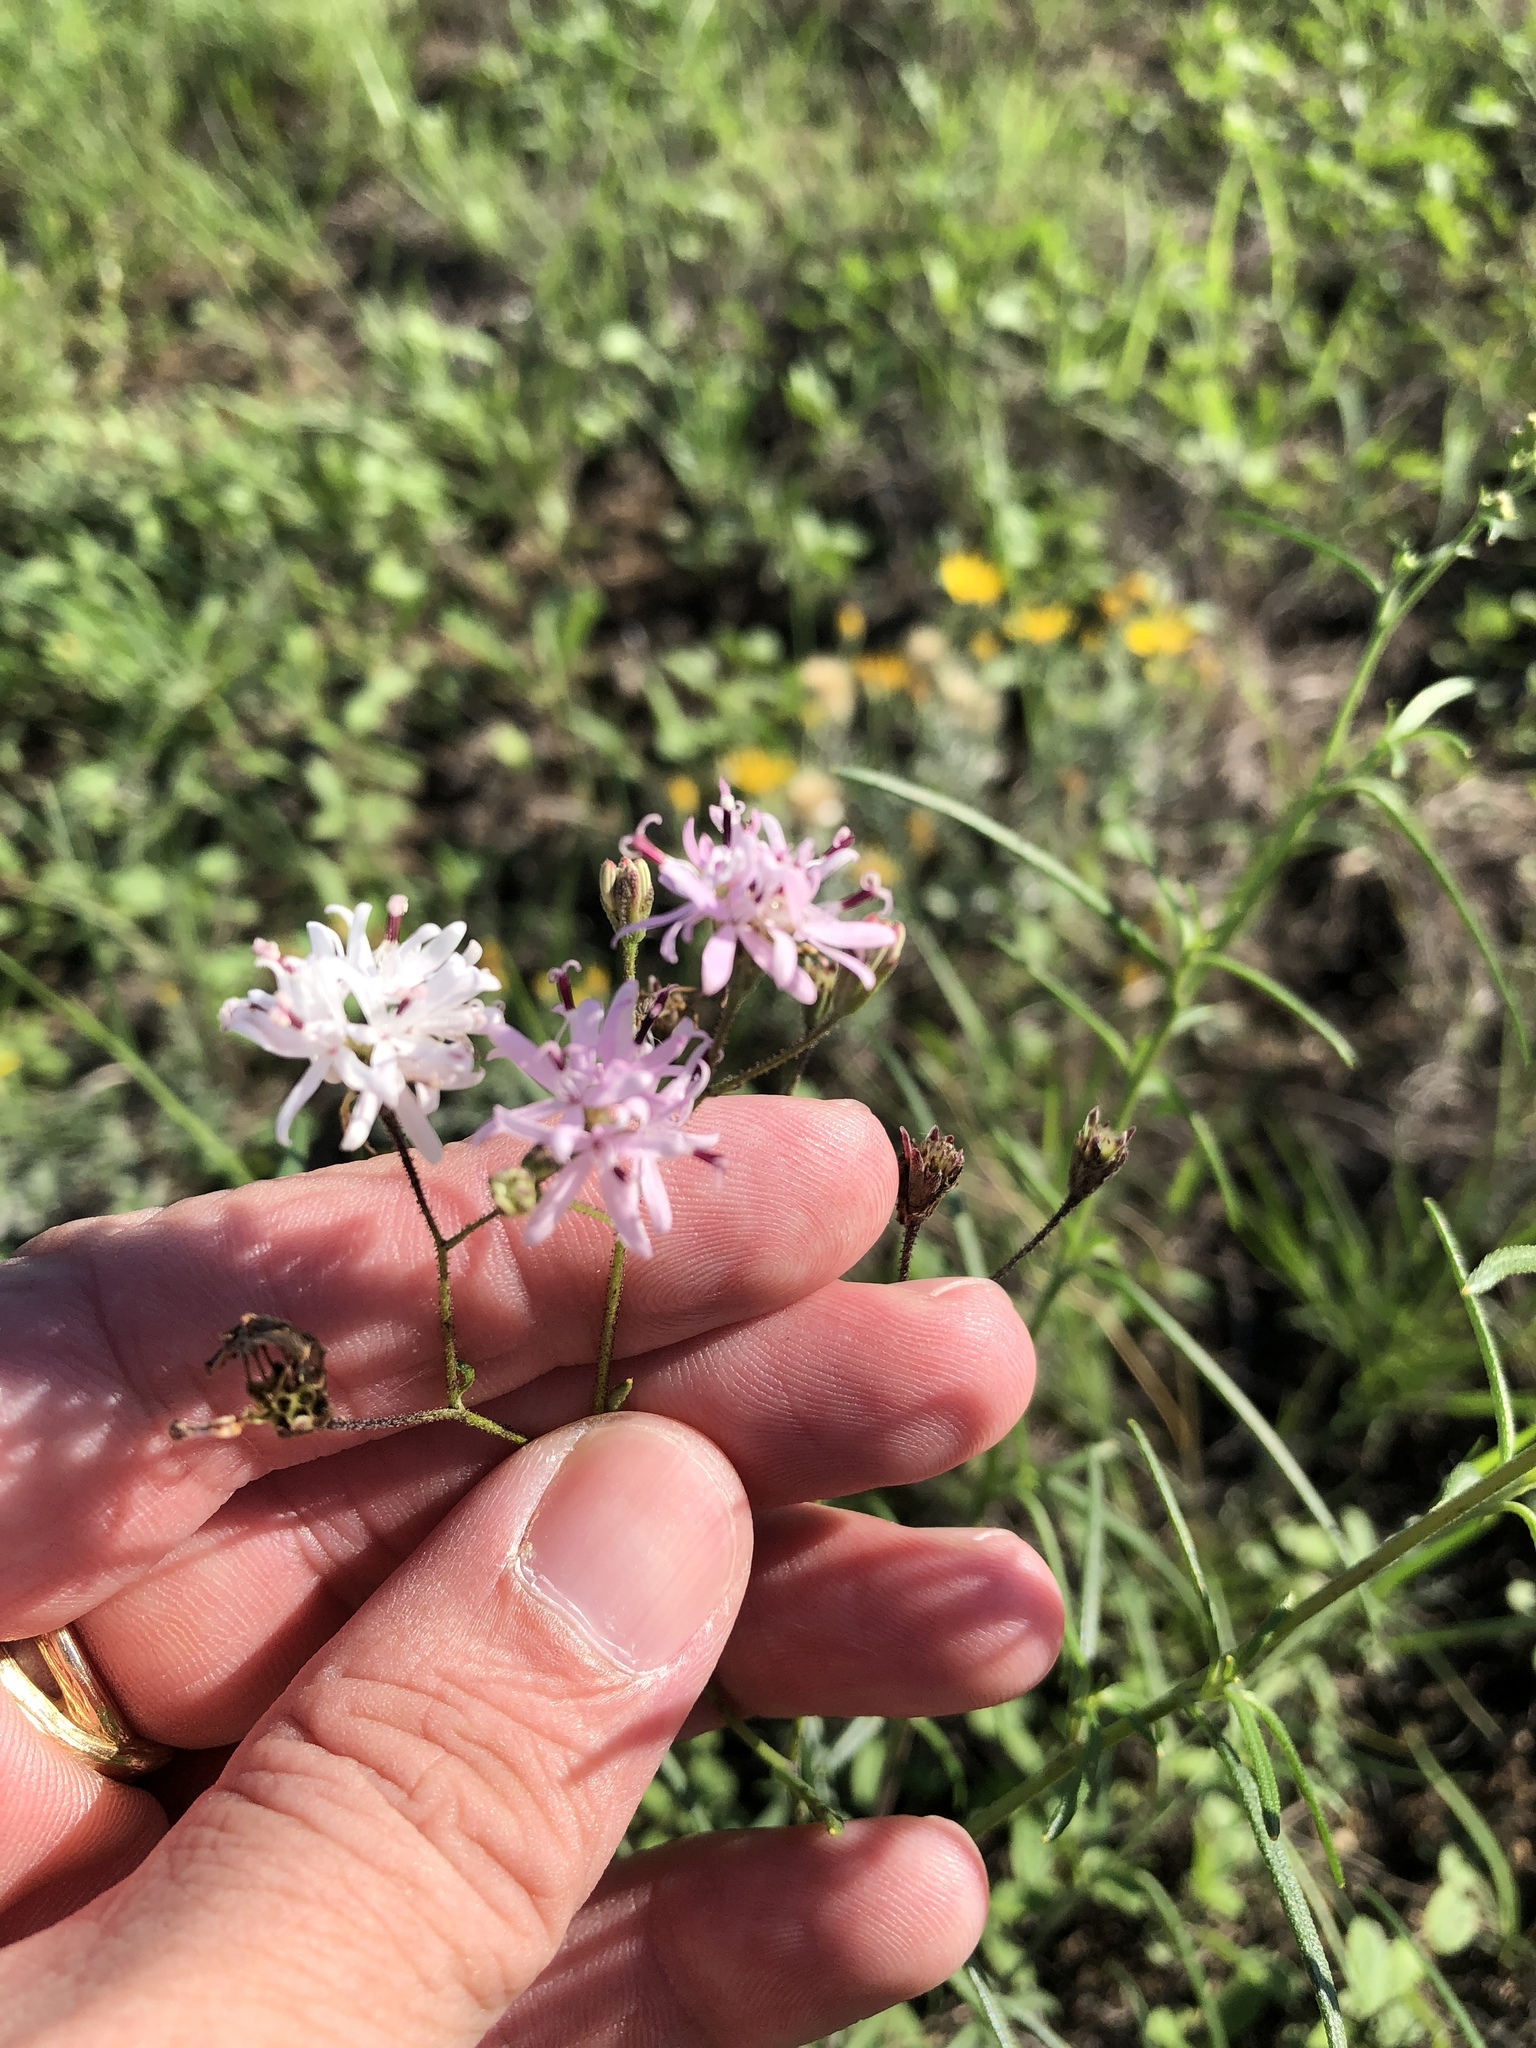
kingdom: Plantae
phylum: Tracheophyta
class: Magnoliopsida
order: Asterales
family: Asteraceae
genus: Palafoxia
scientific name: Palafoxia callosa
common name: Small palafox
